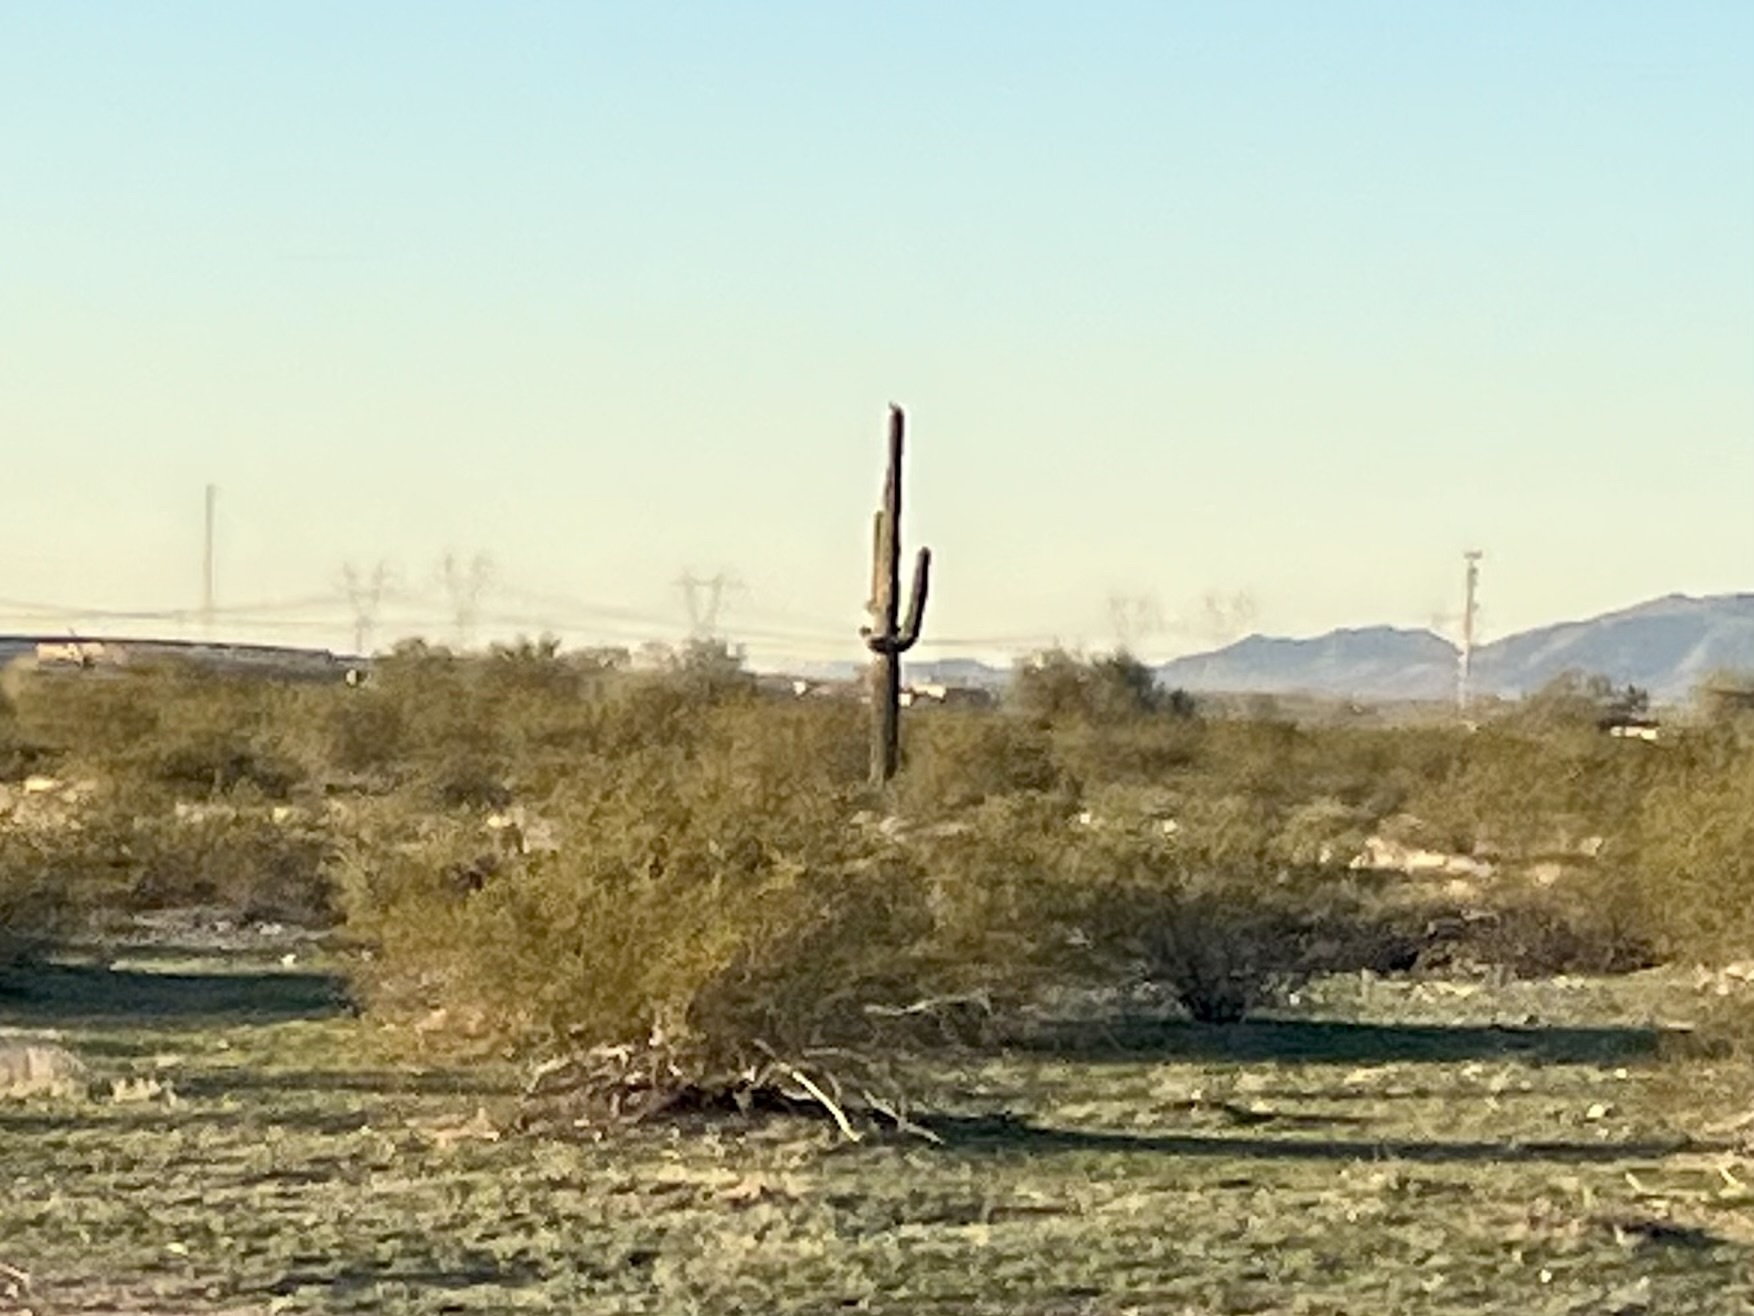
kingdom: Plantae
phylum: Tracheophyta
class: Magnoliopsida
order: Caryophyllales
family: Cactaceae
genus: Carnegiea
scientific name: Carnegiea gigantea
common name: Saguaro
